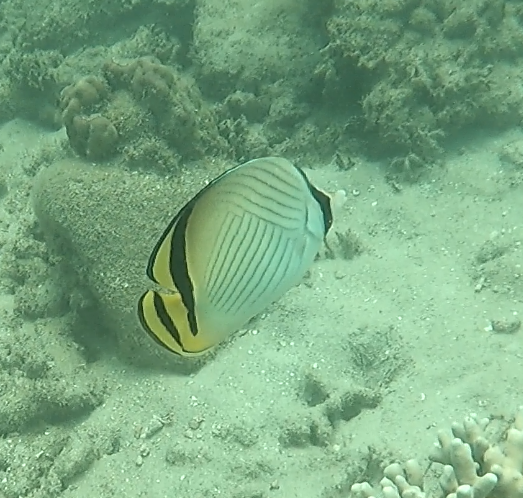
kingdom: Animalia
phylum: Chordata
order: Perciformes
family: Chaetodontidae
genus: Chaetodon
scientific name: Chaetodon vagabundus
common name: Vagabond butterflyfish
